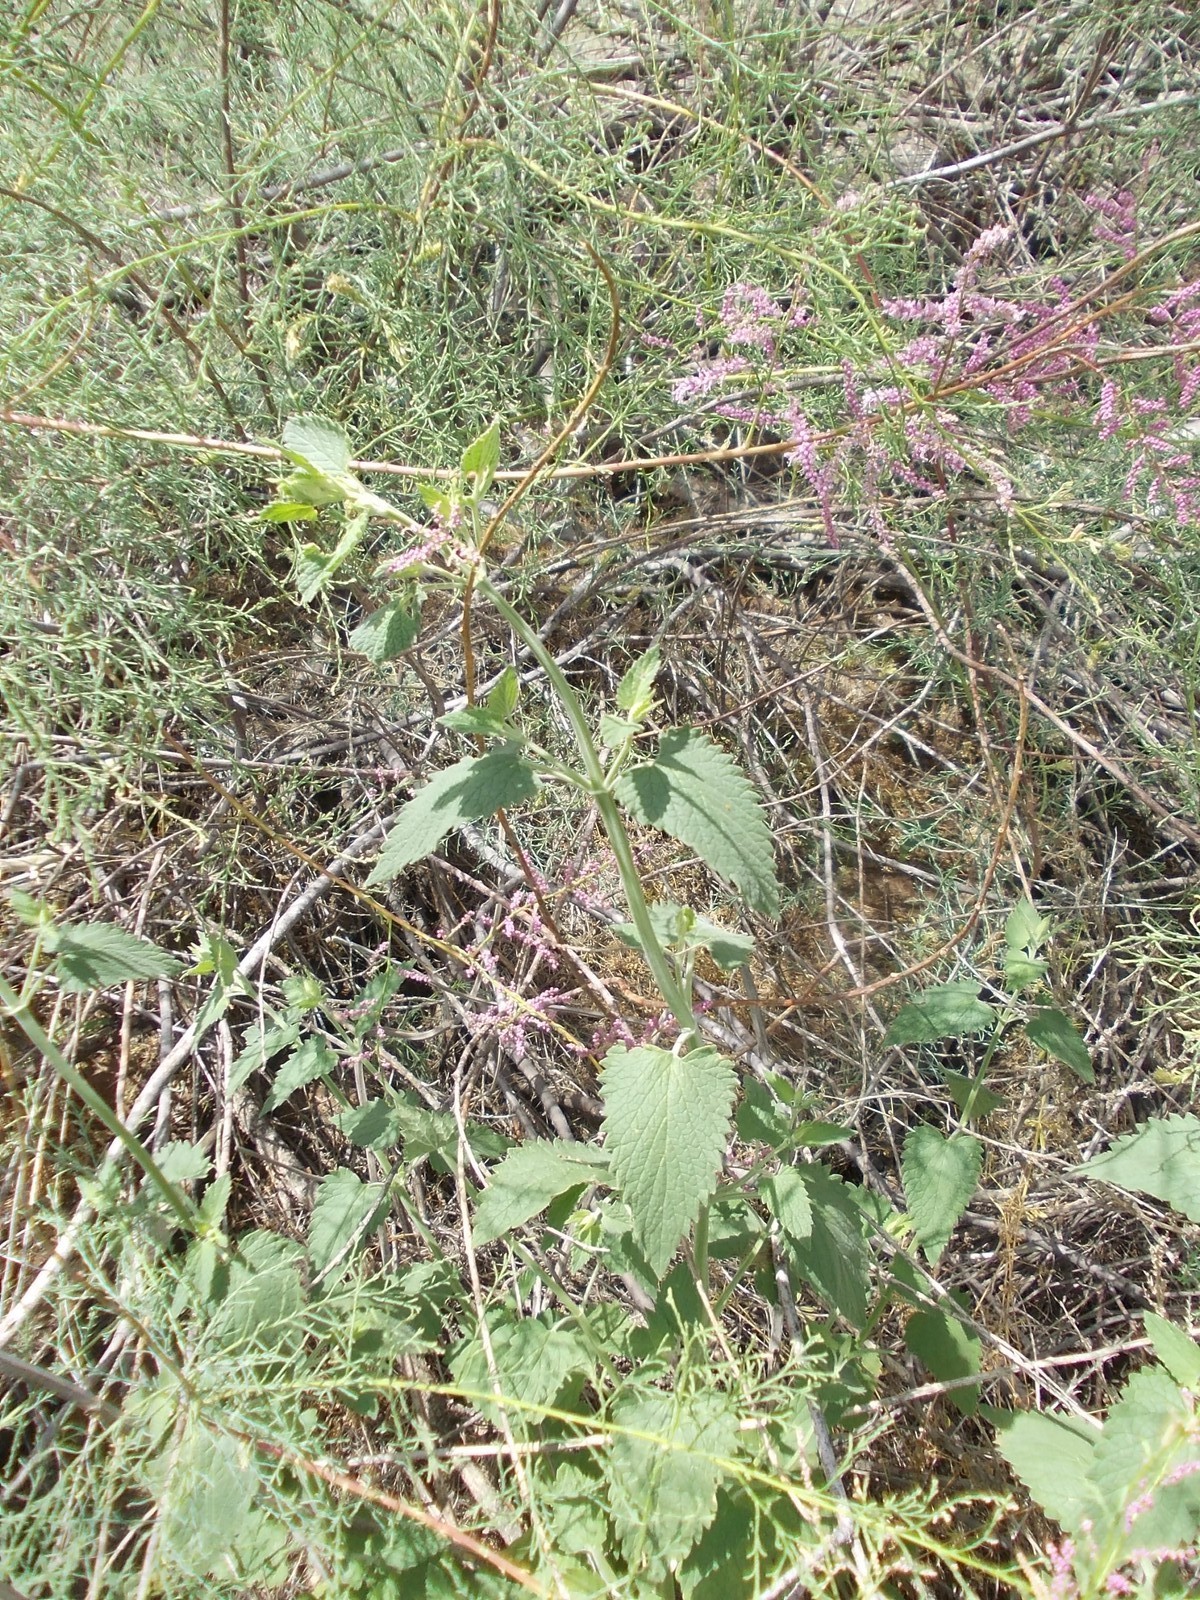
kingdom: Plantae
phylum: Tracheophyta
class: Magnoliopsida
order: Lamiales
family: Lamiaceae
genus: Nepeta
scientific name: Nepeta cataria
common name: Catnip
